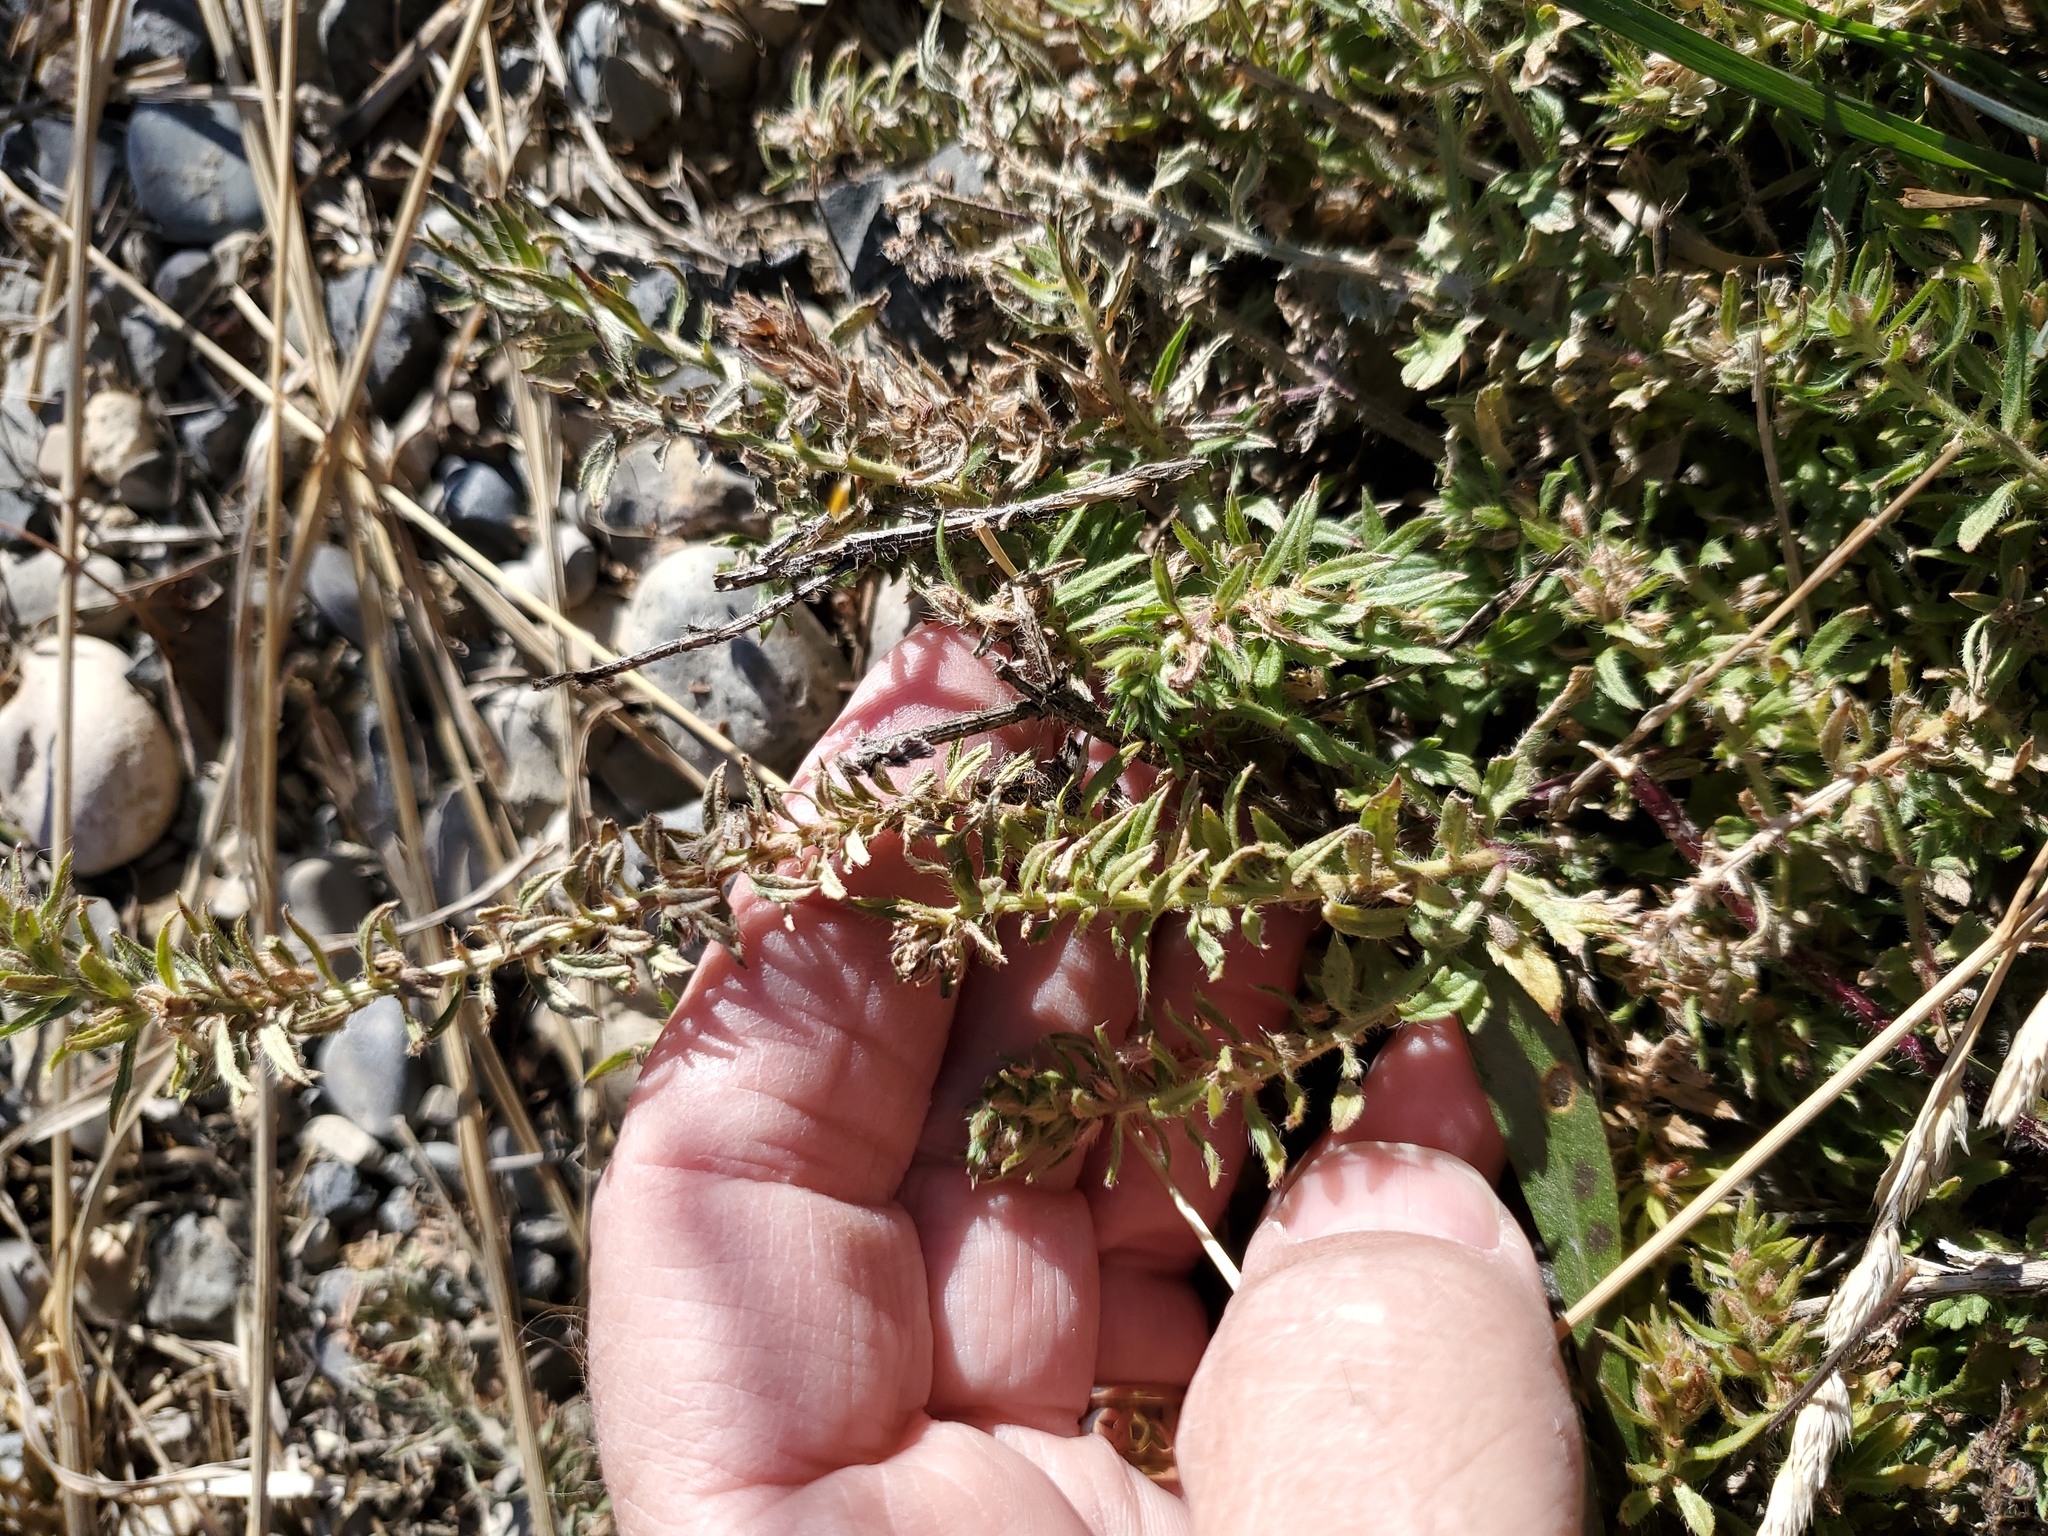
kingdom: Plantae
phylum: Tracheophyta
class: Magnoliopsida
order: Lamiales
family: Verbenaceae
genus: Verbena
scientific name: Verbena bracteata
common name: Bracted vervain
